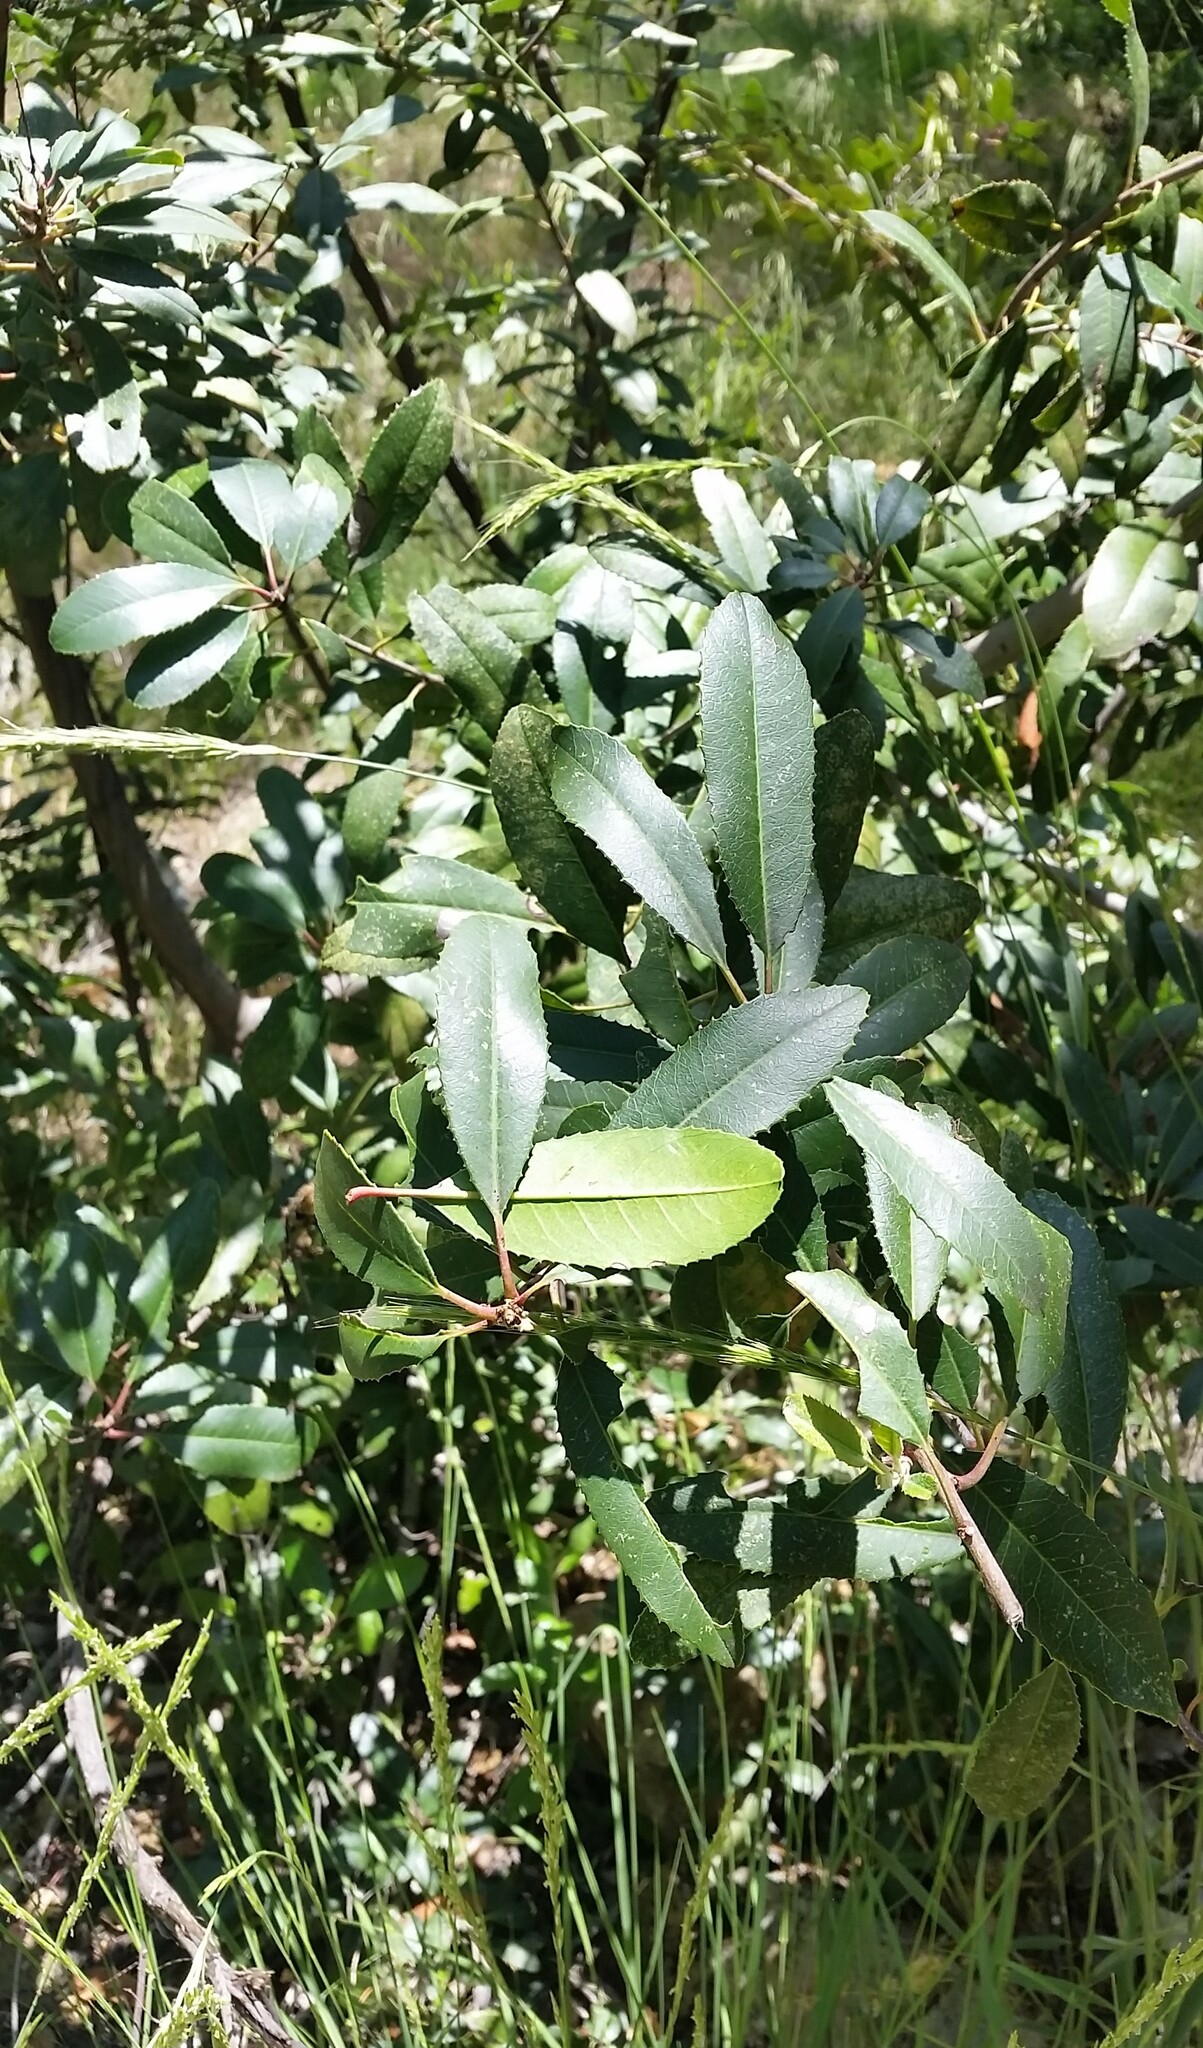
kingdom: Plantae
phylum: Tracheophyta
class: Magnoliopsida
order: Rosales
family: Rosaceae
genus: Heteromeles
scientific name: Heteromeles arbutifolia
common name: California-holly
